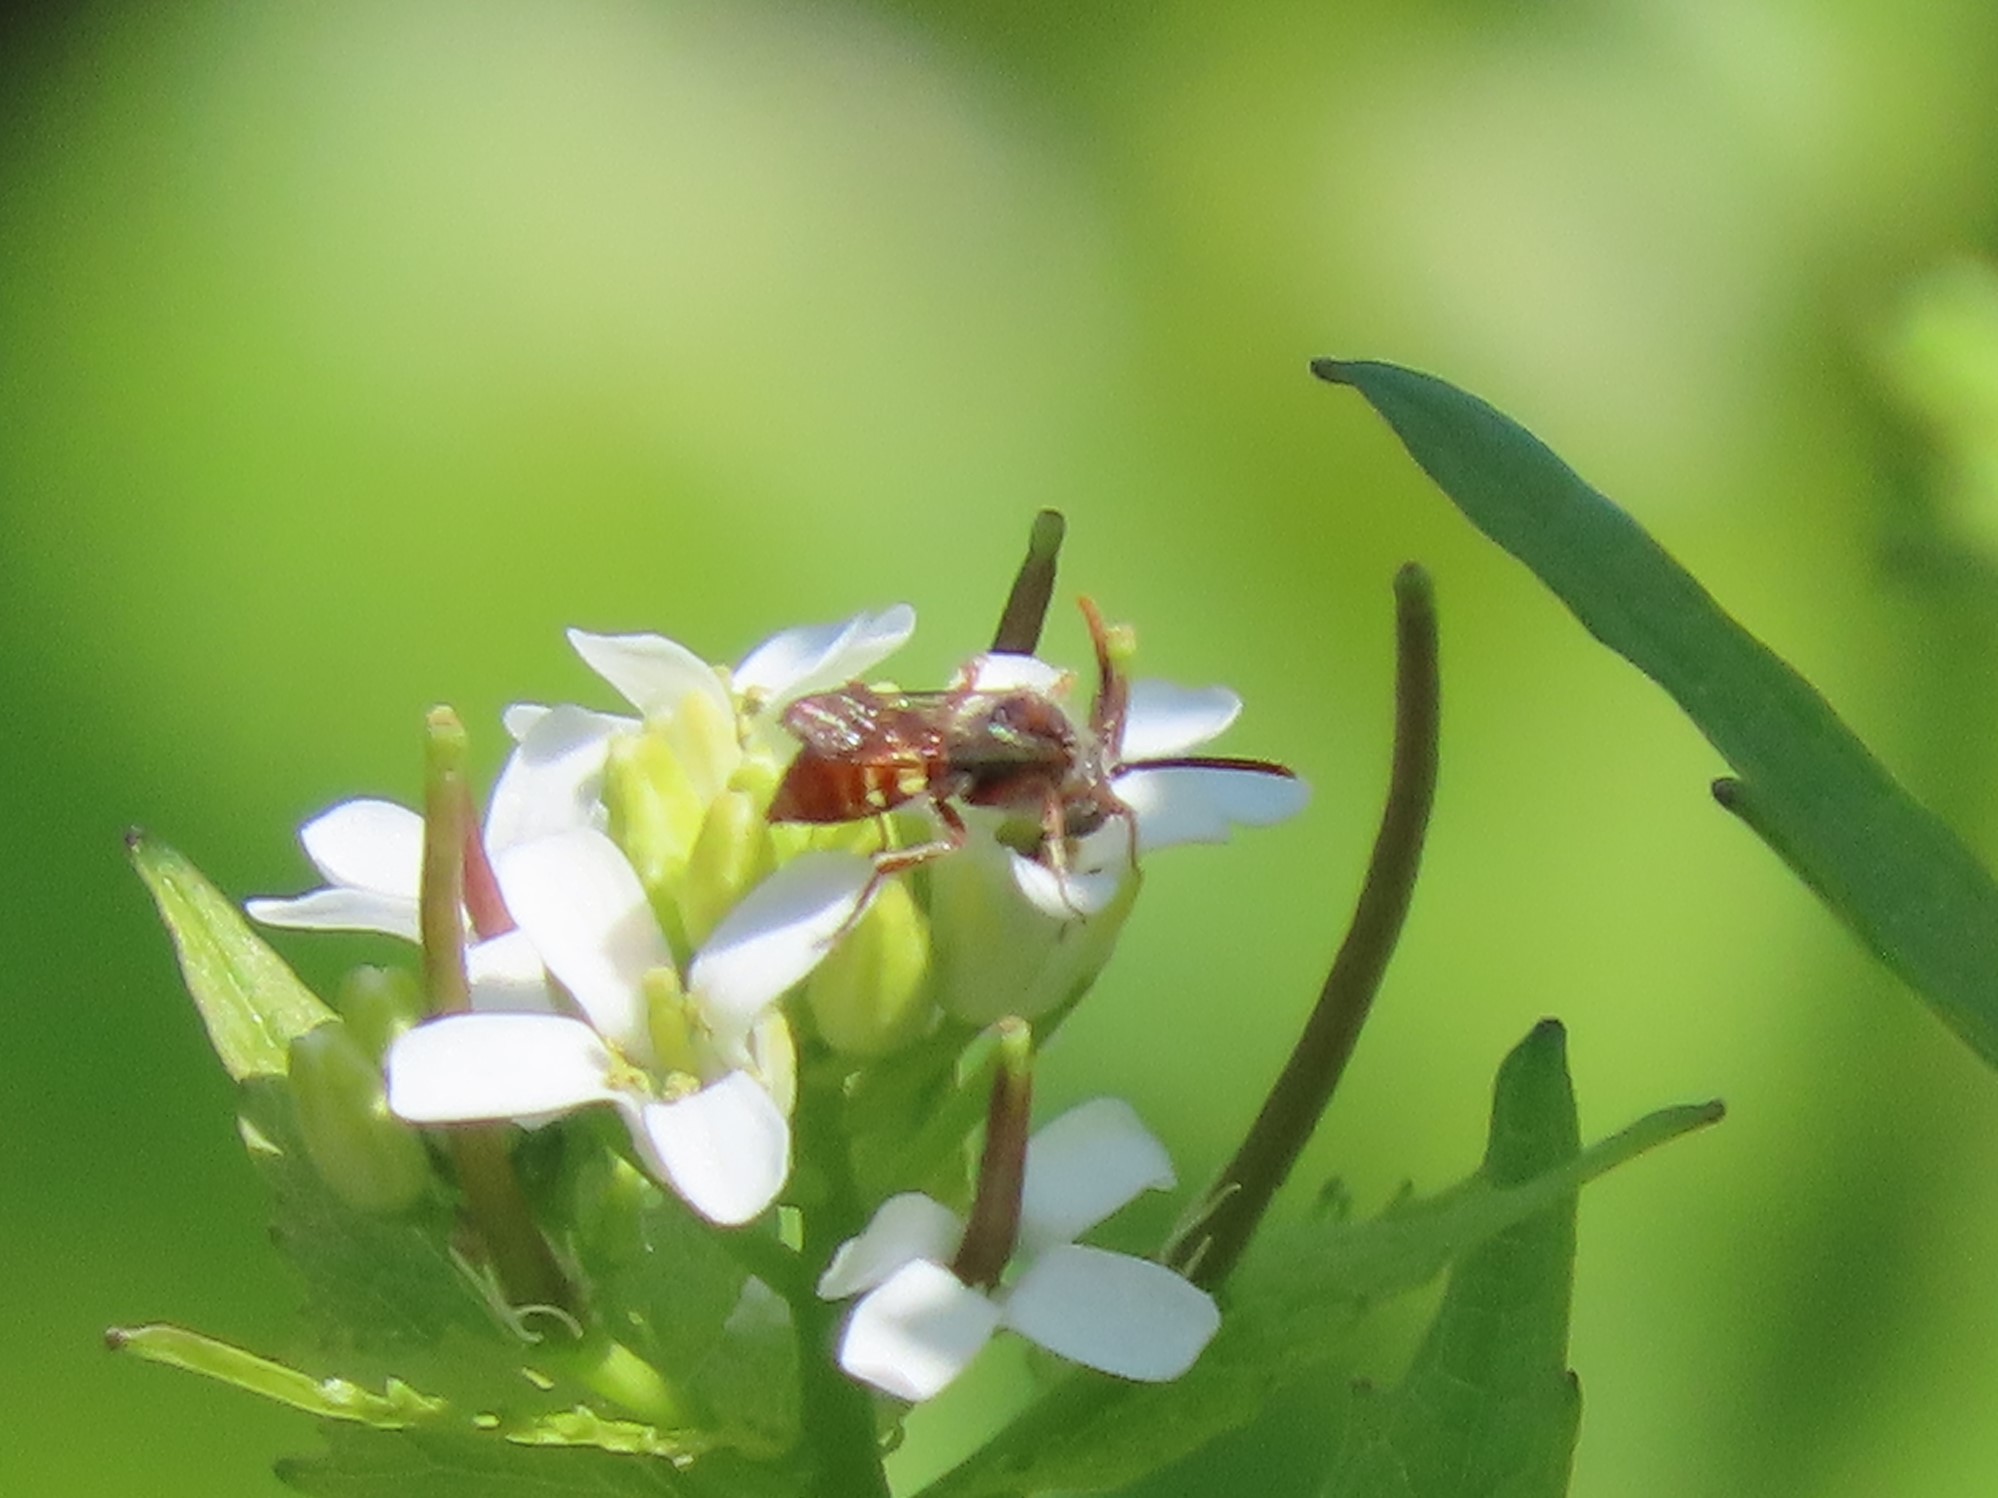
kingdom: Animalia
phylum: Arthropoda
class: Insecta
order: Hymenoptera
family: Apidae
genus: Nomada
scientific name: Nomada
